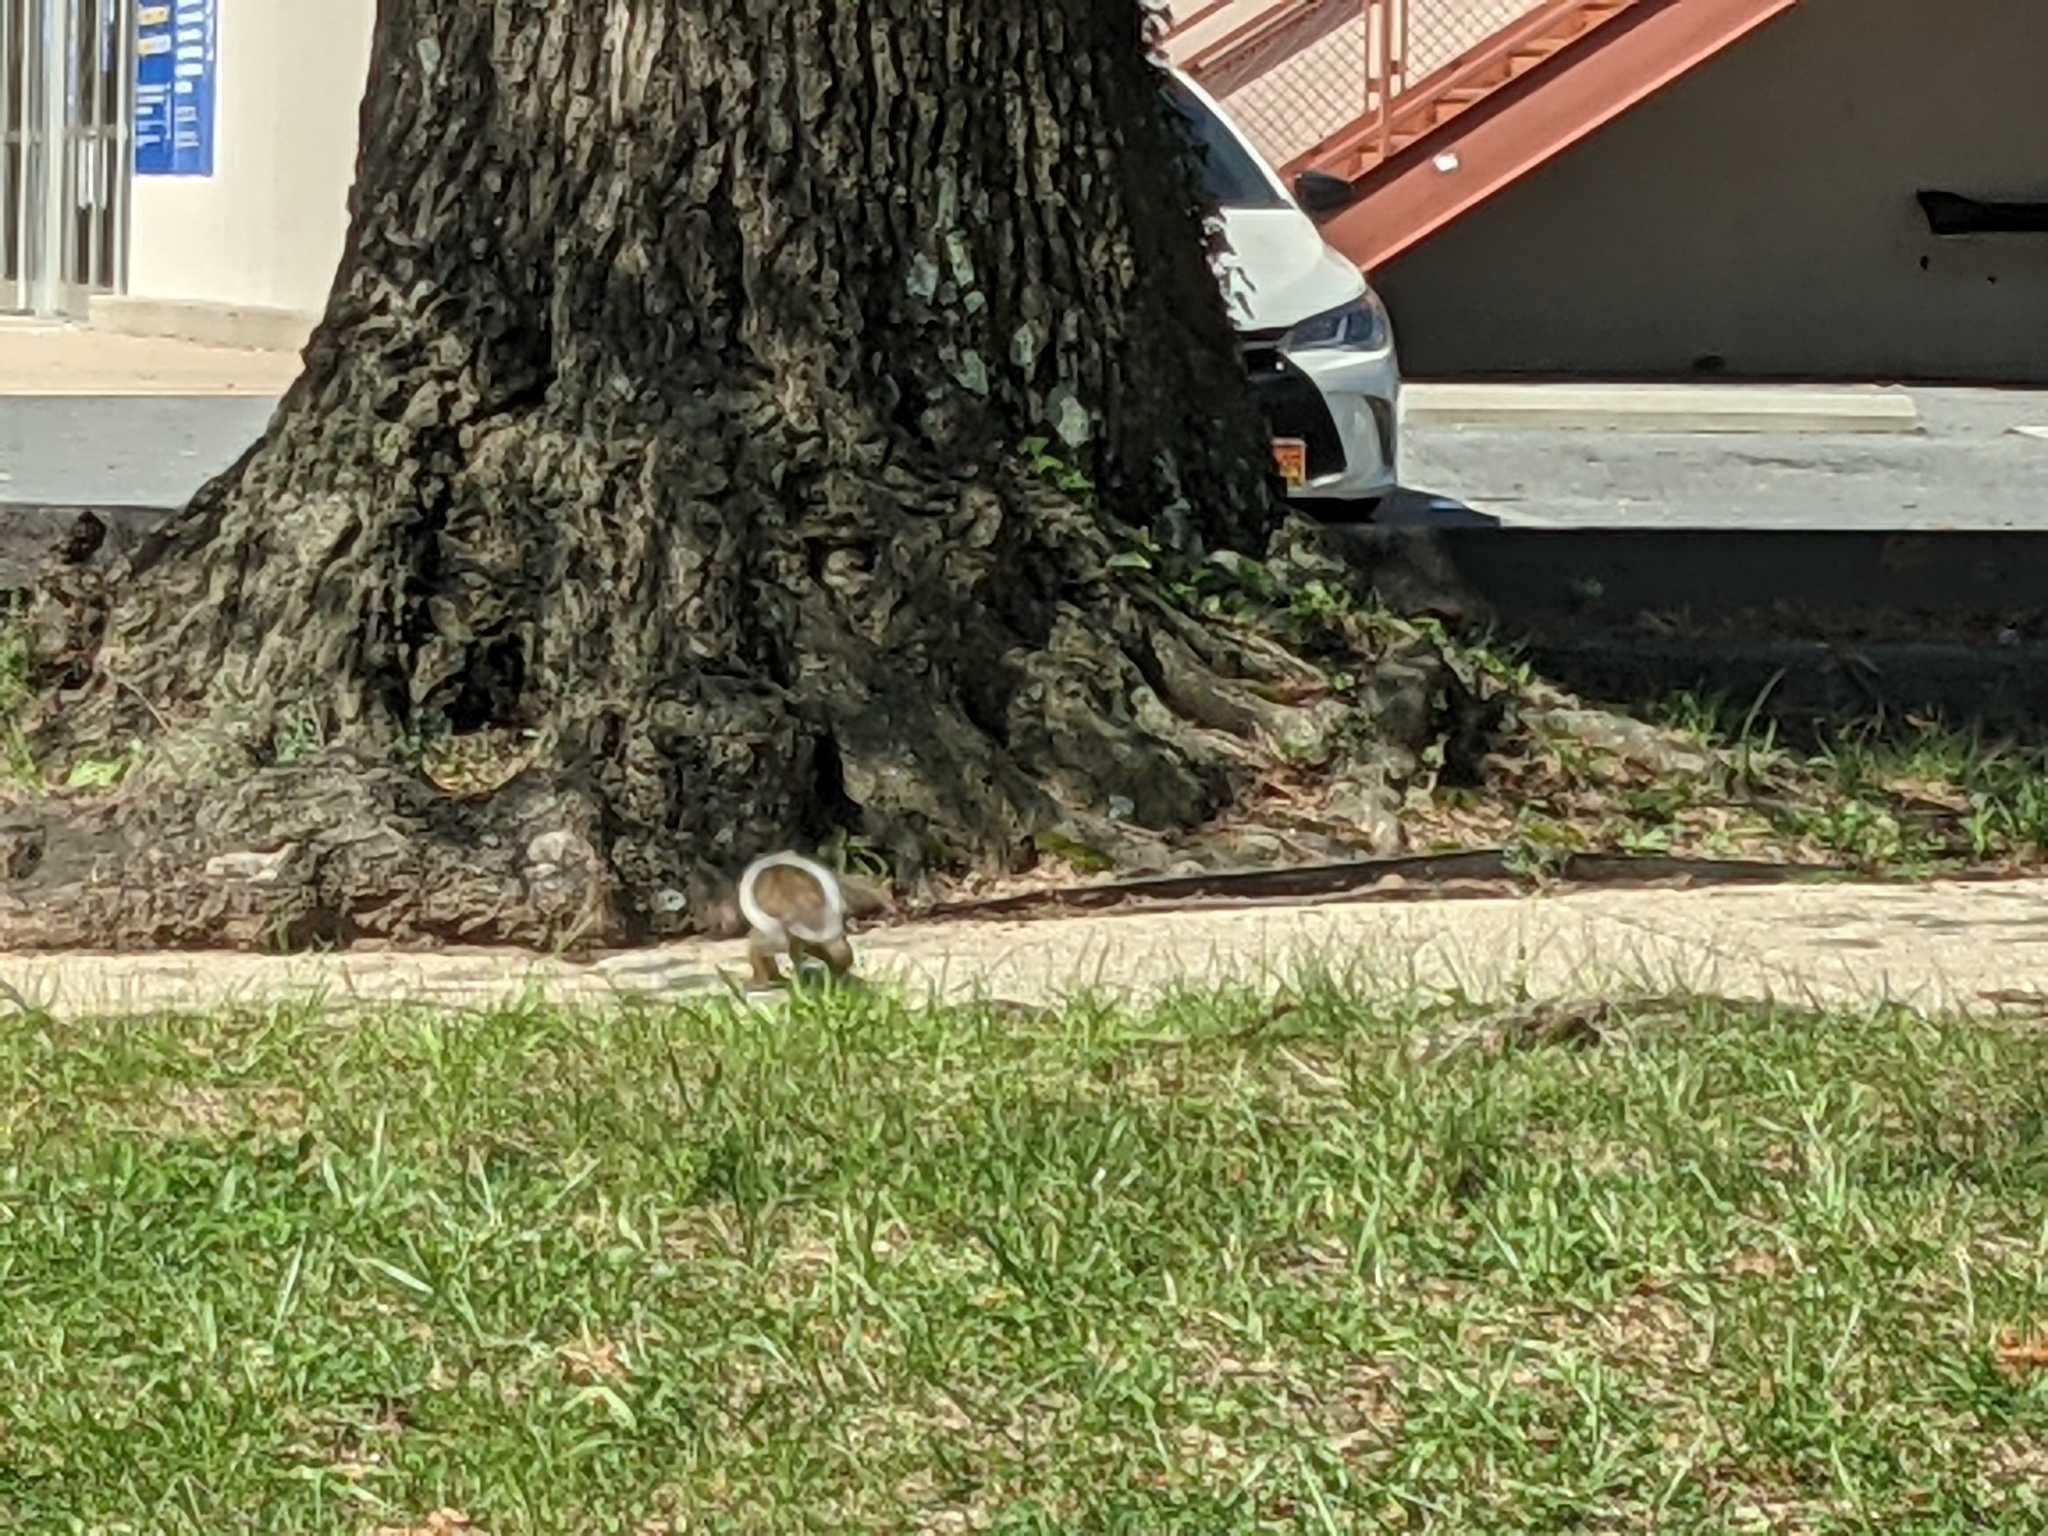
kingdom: Animalia
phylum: Chordata
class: Mammalia
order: Rodentia
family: Sciuridae
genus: Sciurus
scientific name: Sciurus carolinensis
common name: Eastern gray squirrel
